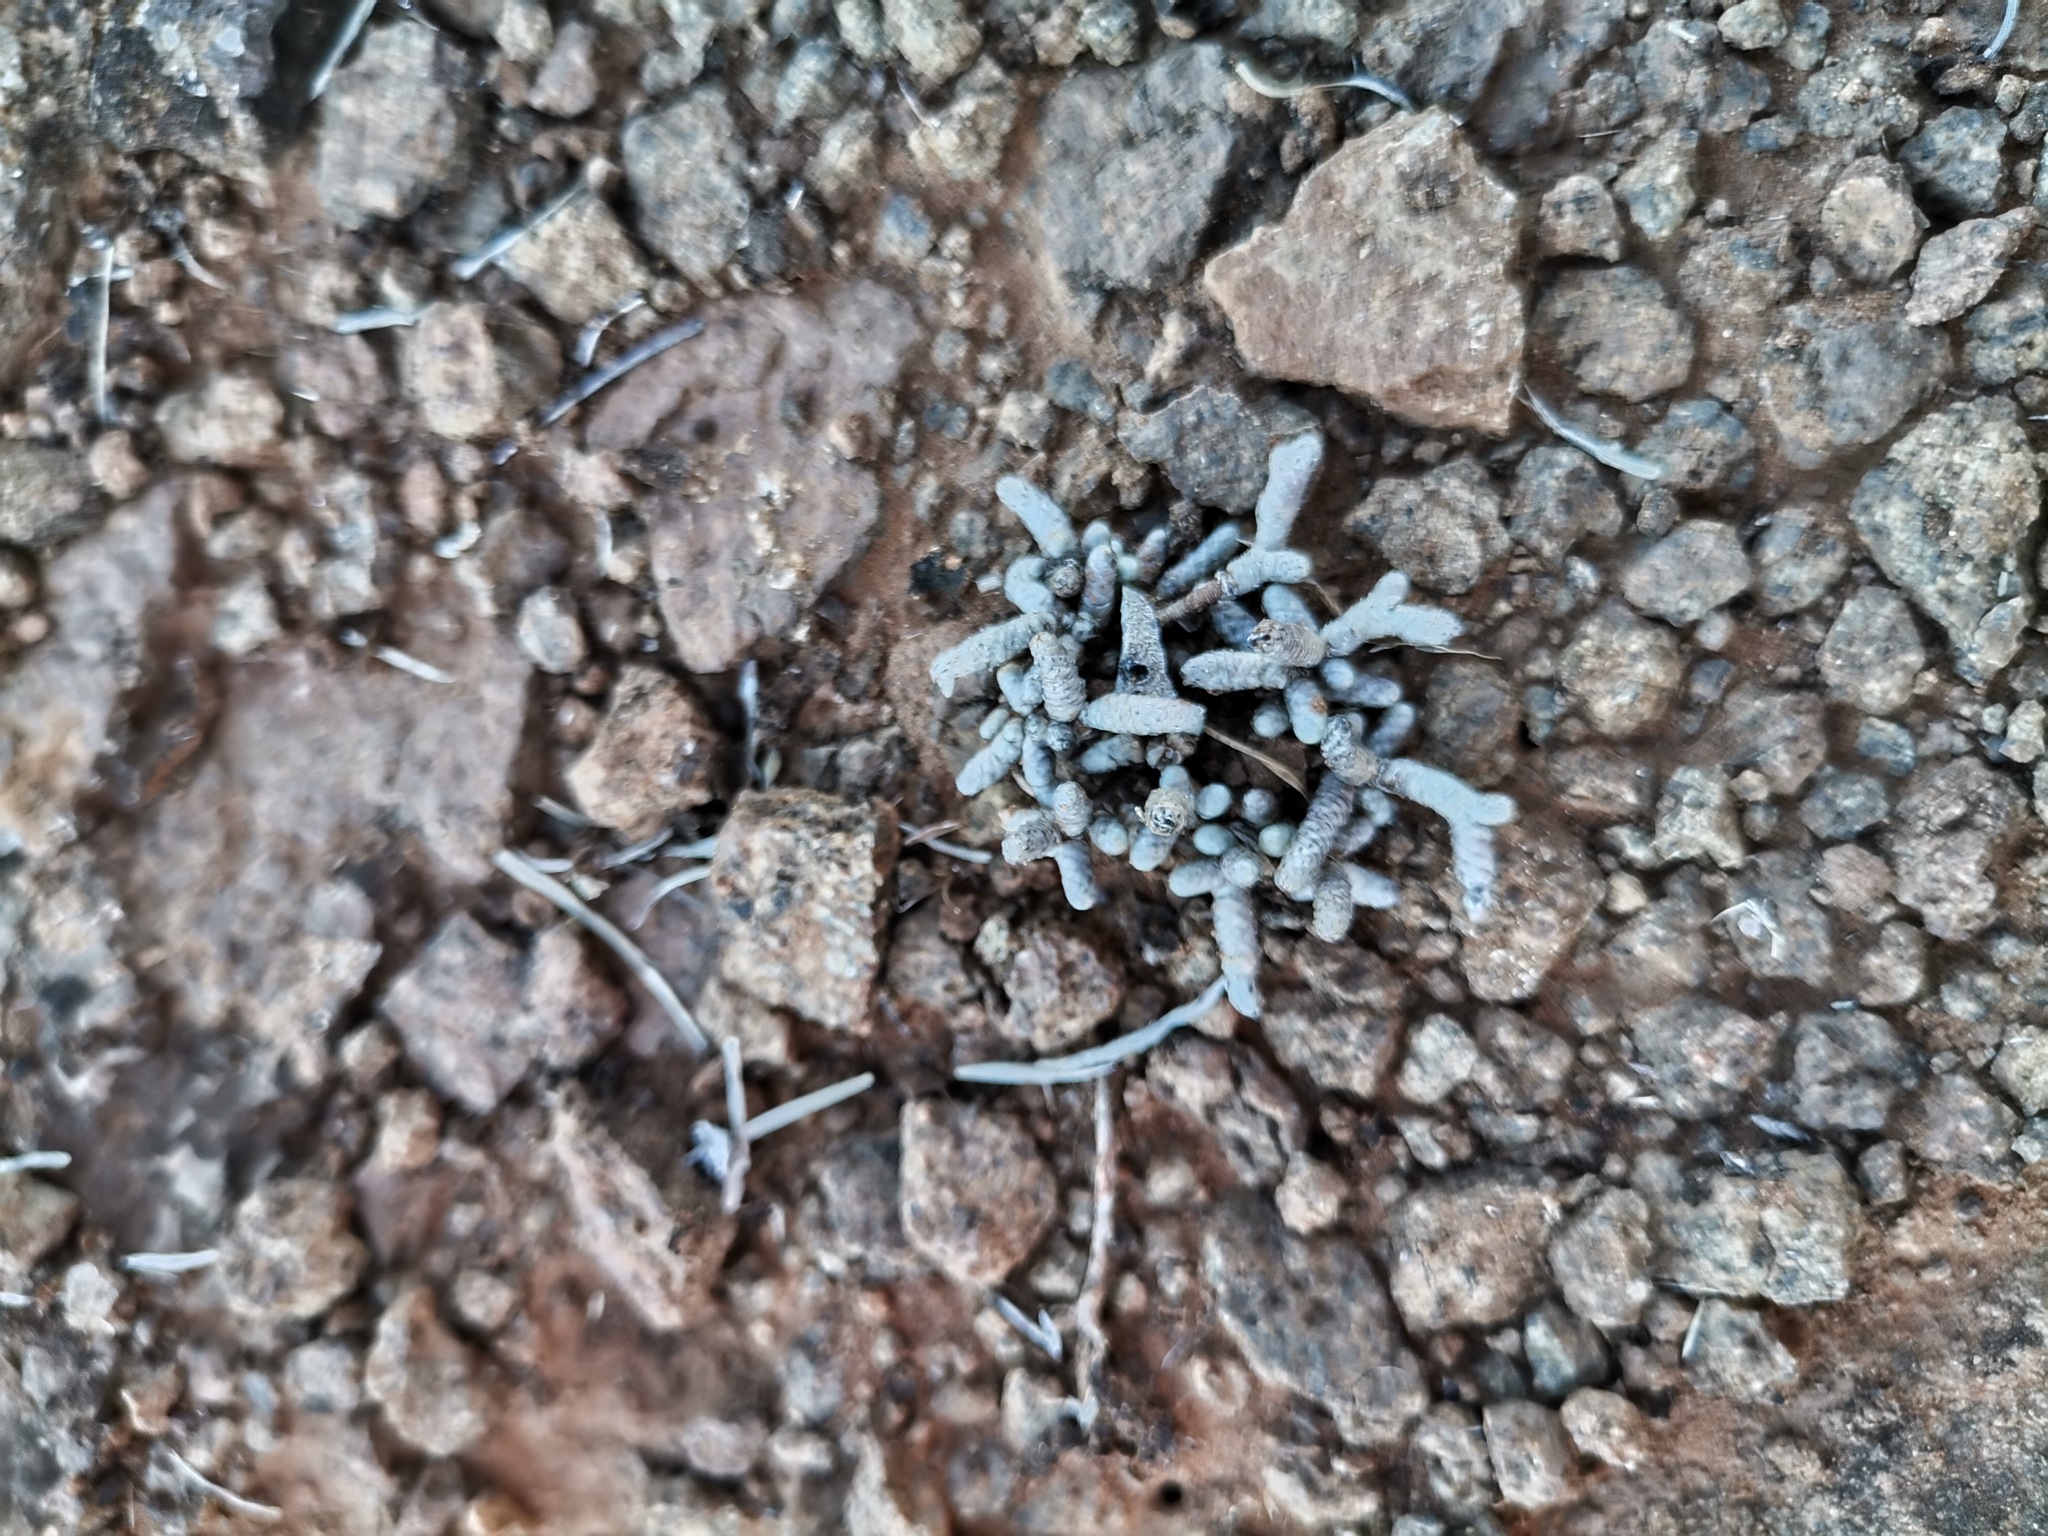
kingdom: Plantae
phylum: Tracheophyta
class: Magnoliopsida
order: Caryophyllales
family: Anacampserotaceae
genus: Avonia
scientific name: Avonia ustulata
